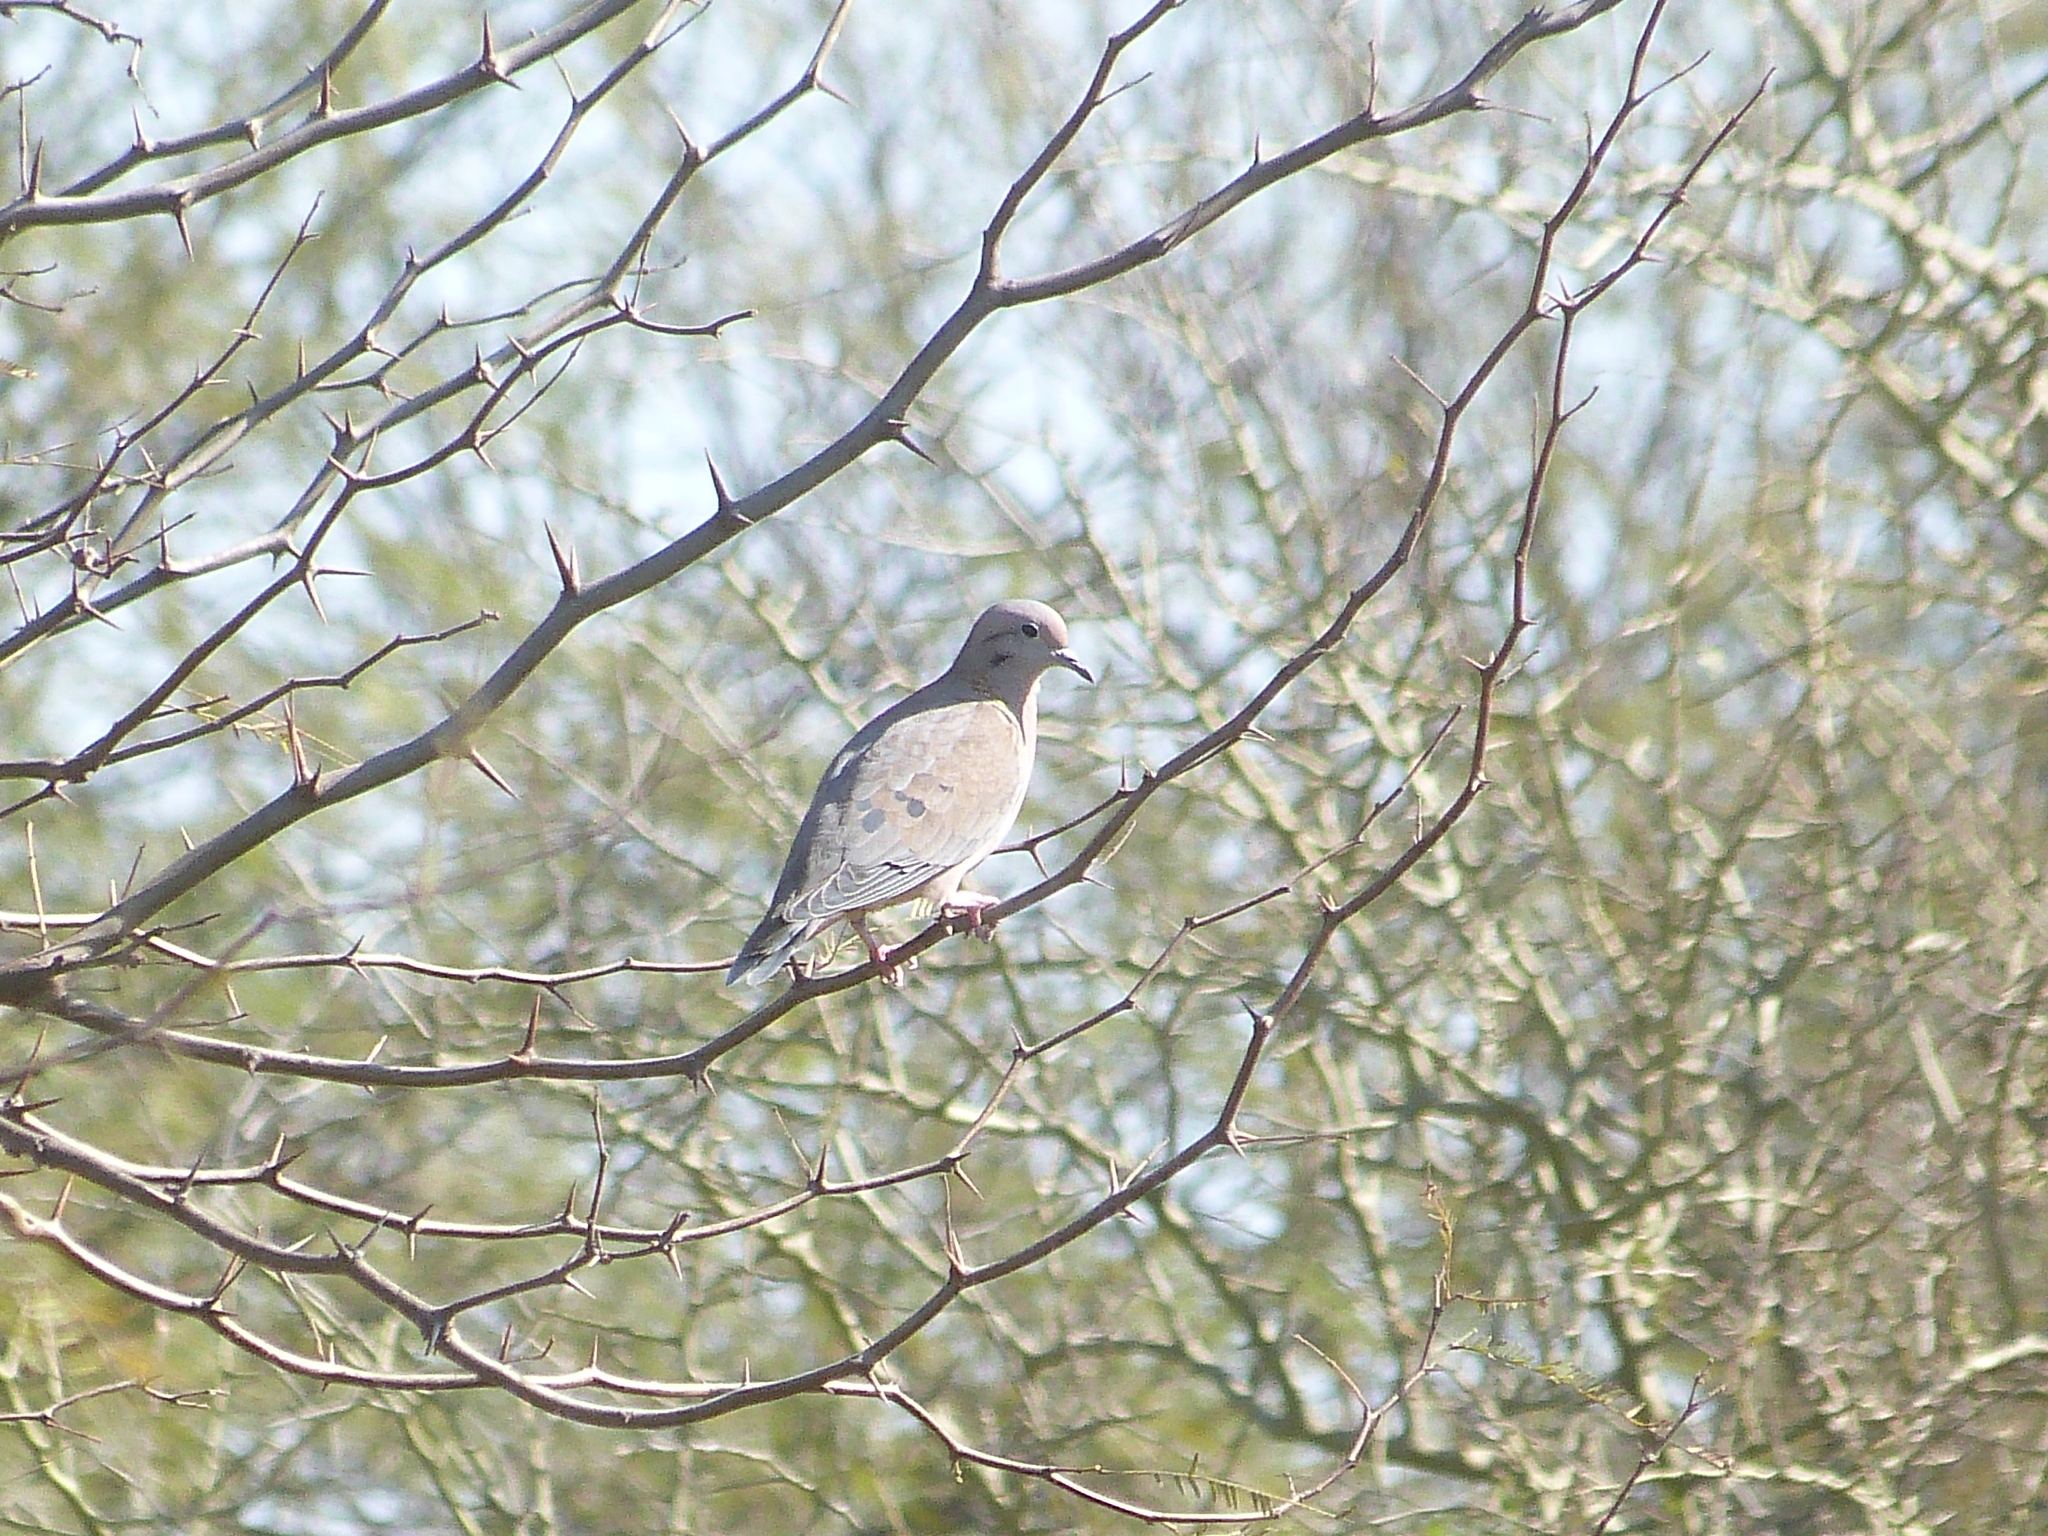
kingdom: Animalia
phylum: Chordata
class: Aves
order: Columbiformes
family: Columbidae
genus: Zenaida
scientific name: Zenaida auriculata
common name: Eared dove
